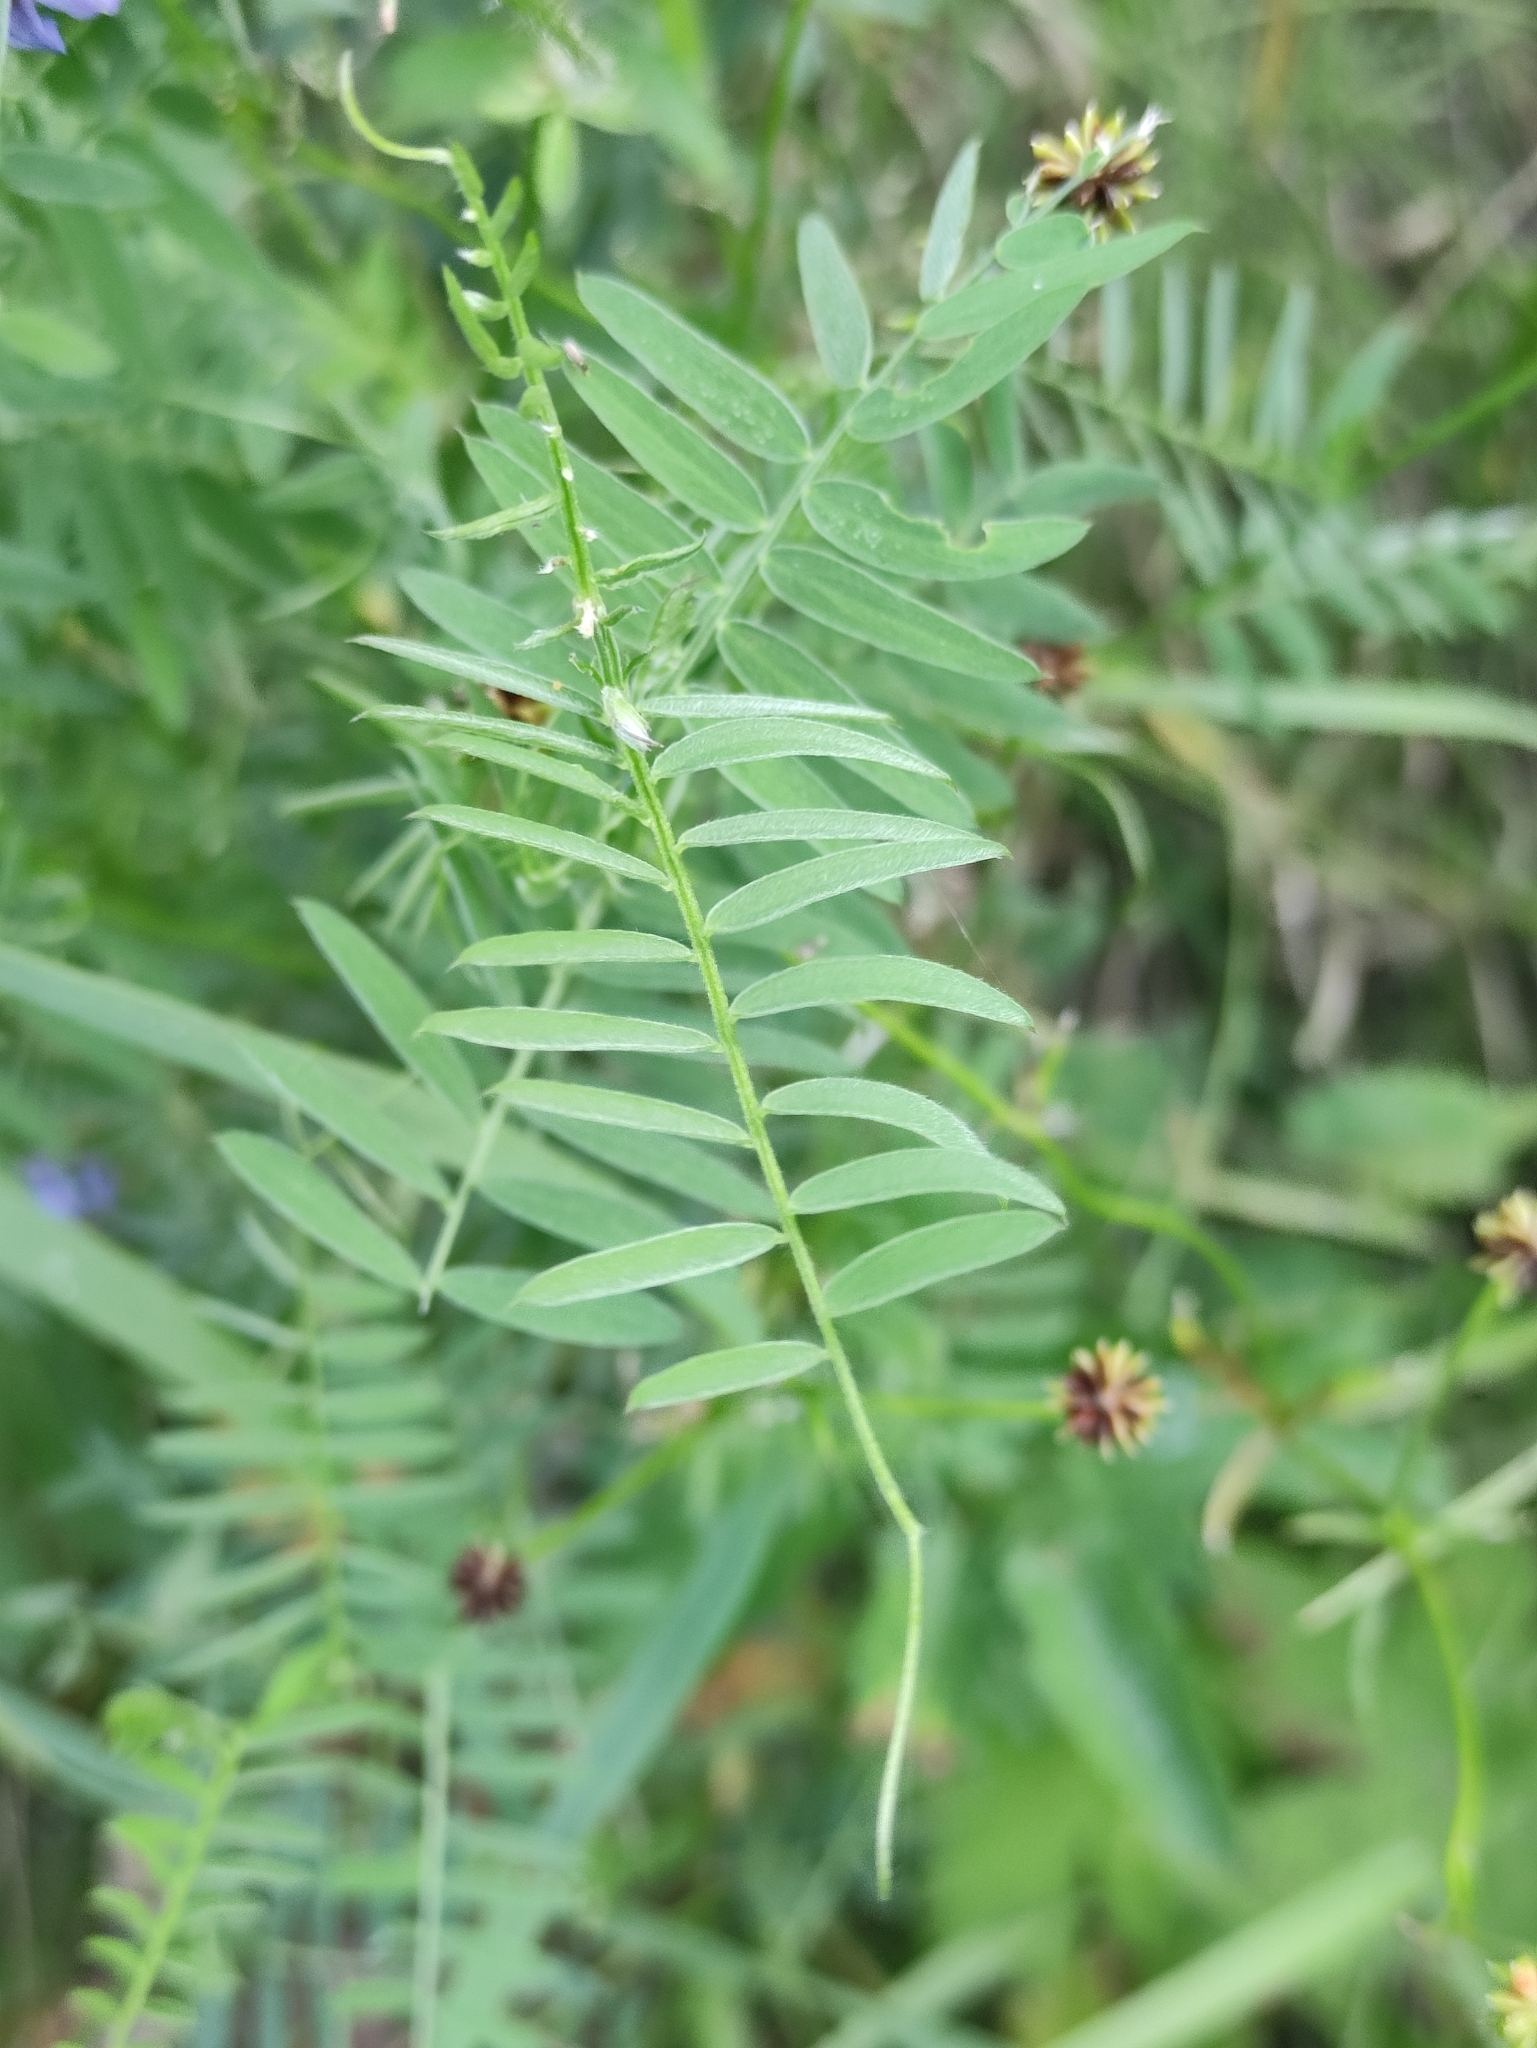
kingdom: Plantae
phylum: Tracheophyta
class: Magnoliopsida
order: Fabales
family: Fabaceae
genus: Vicia
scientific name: Vicia cracca
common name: Bird vetch
